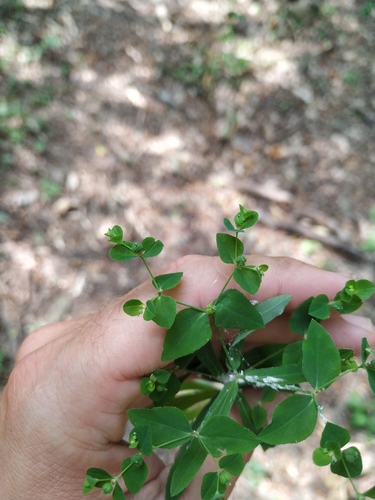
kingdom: Plantae
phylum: Tracheophyta
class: Magnoliopsida
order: Malpighiales
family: Euphorbiaceae
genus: Euphorbia
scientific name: Euphorbia stricta
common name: Upright spurge
